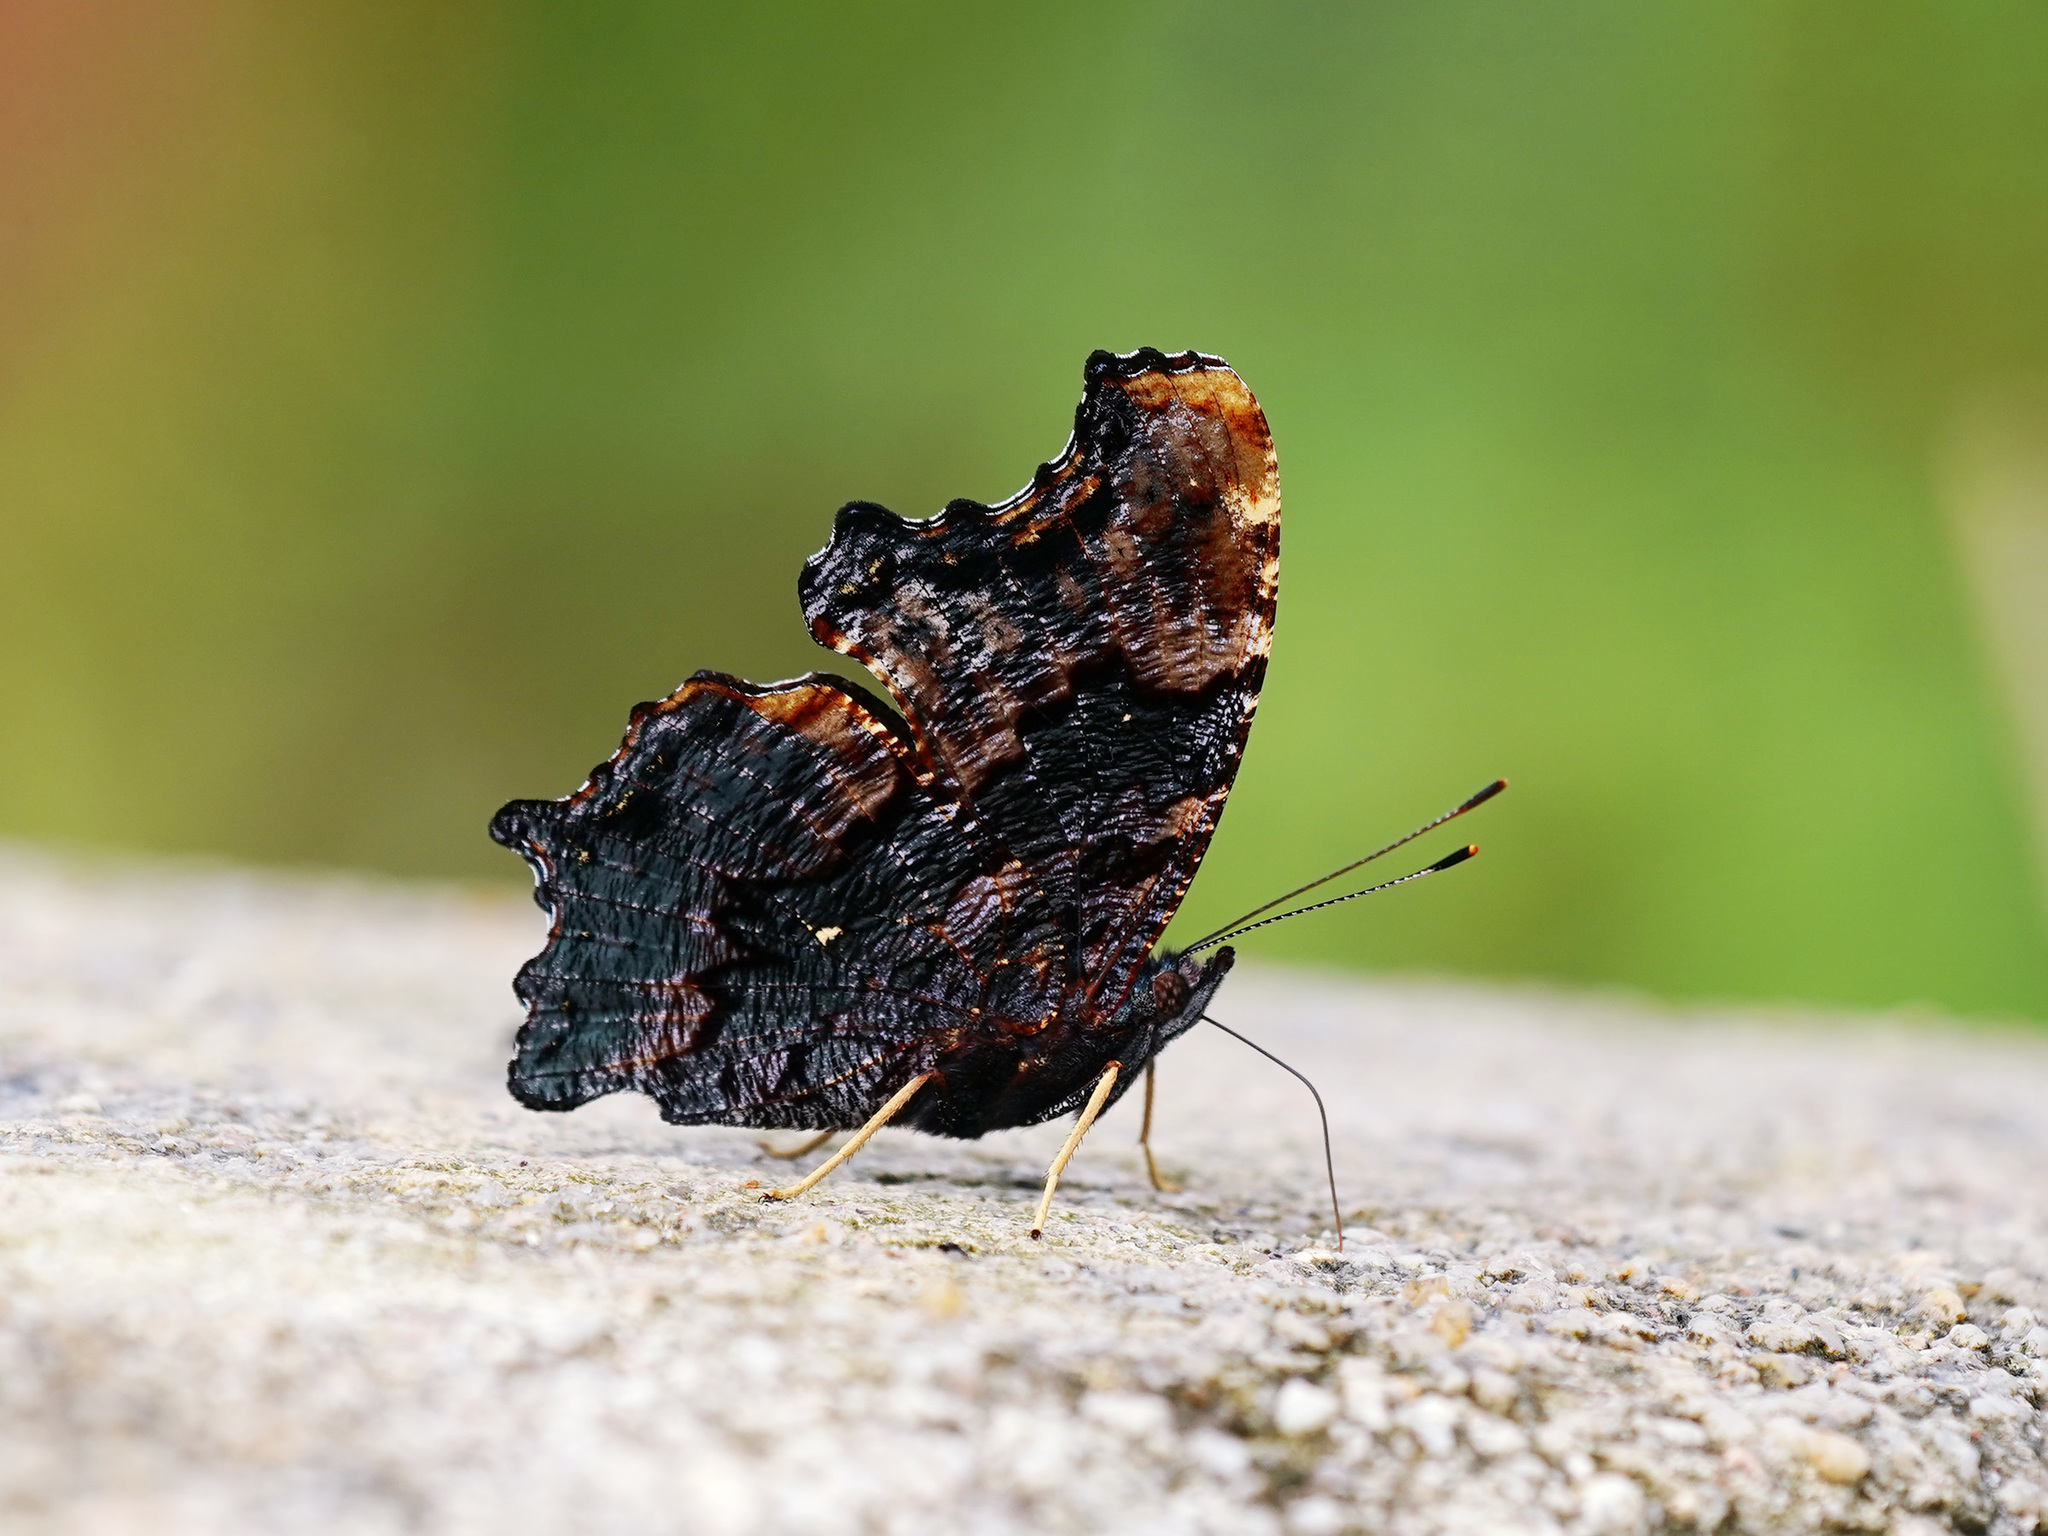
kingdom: Animalia
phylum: Arthropoda
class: Insecta
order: Lepidoptera
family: Nymphalidae
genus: Vanessa
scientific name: Vanessa Kaniska canace
